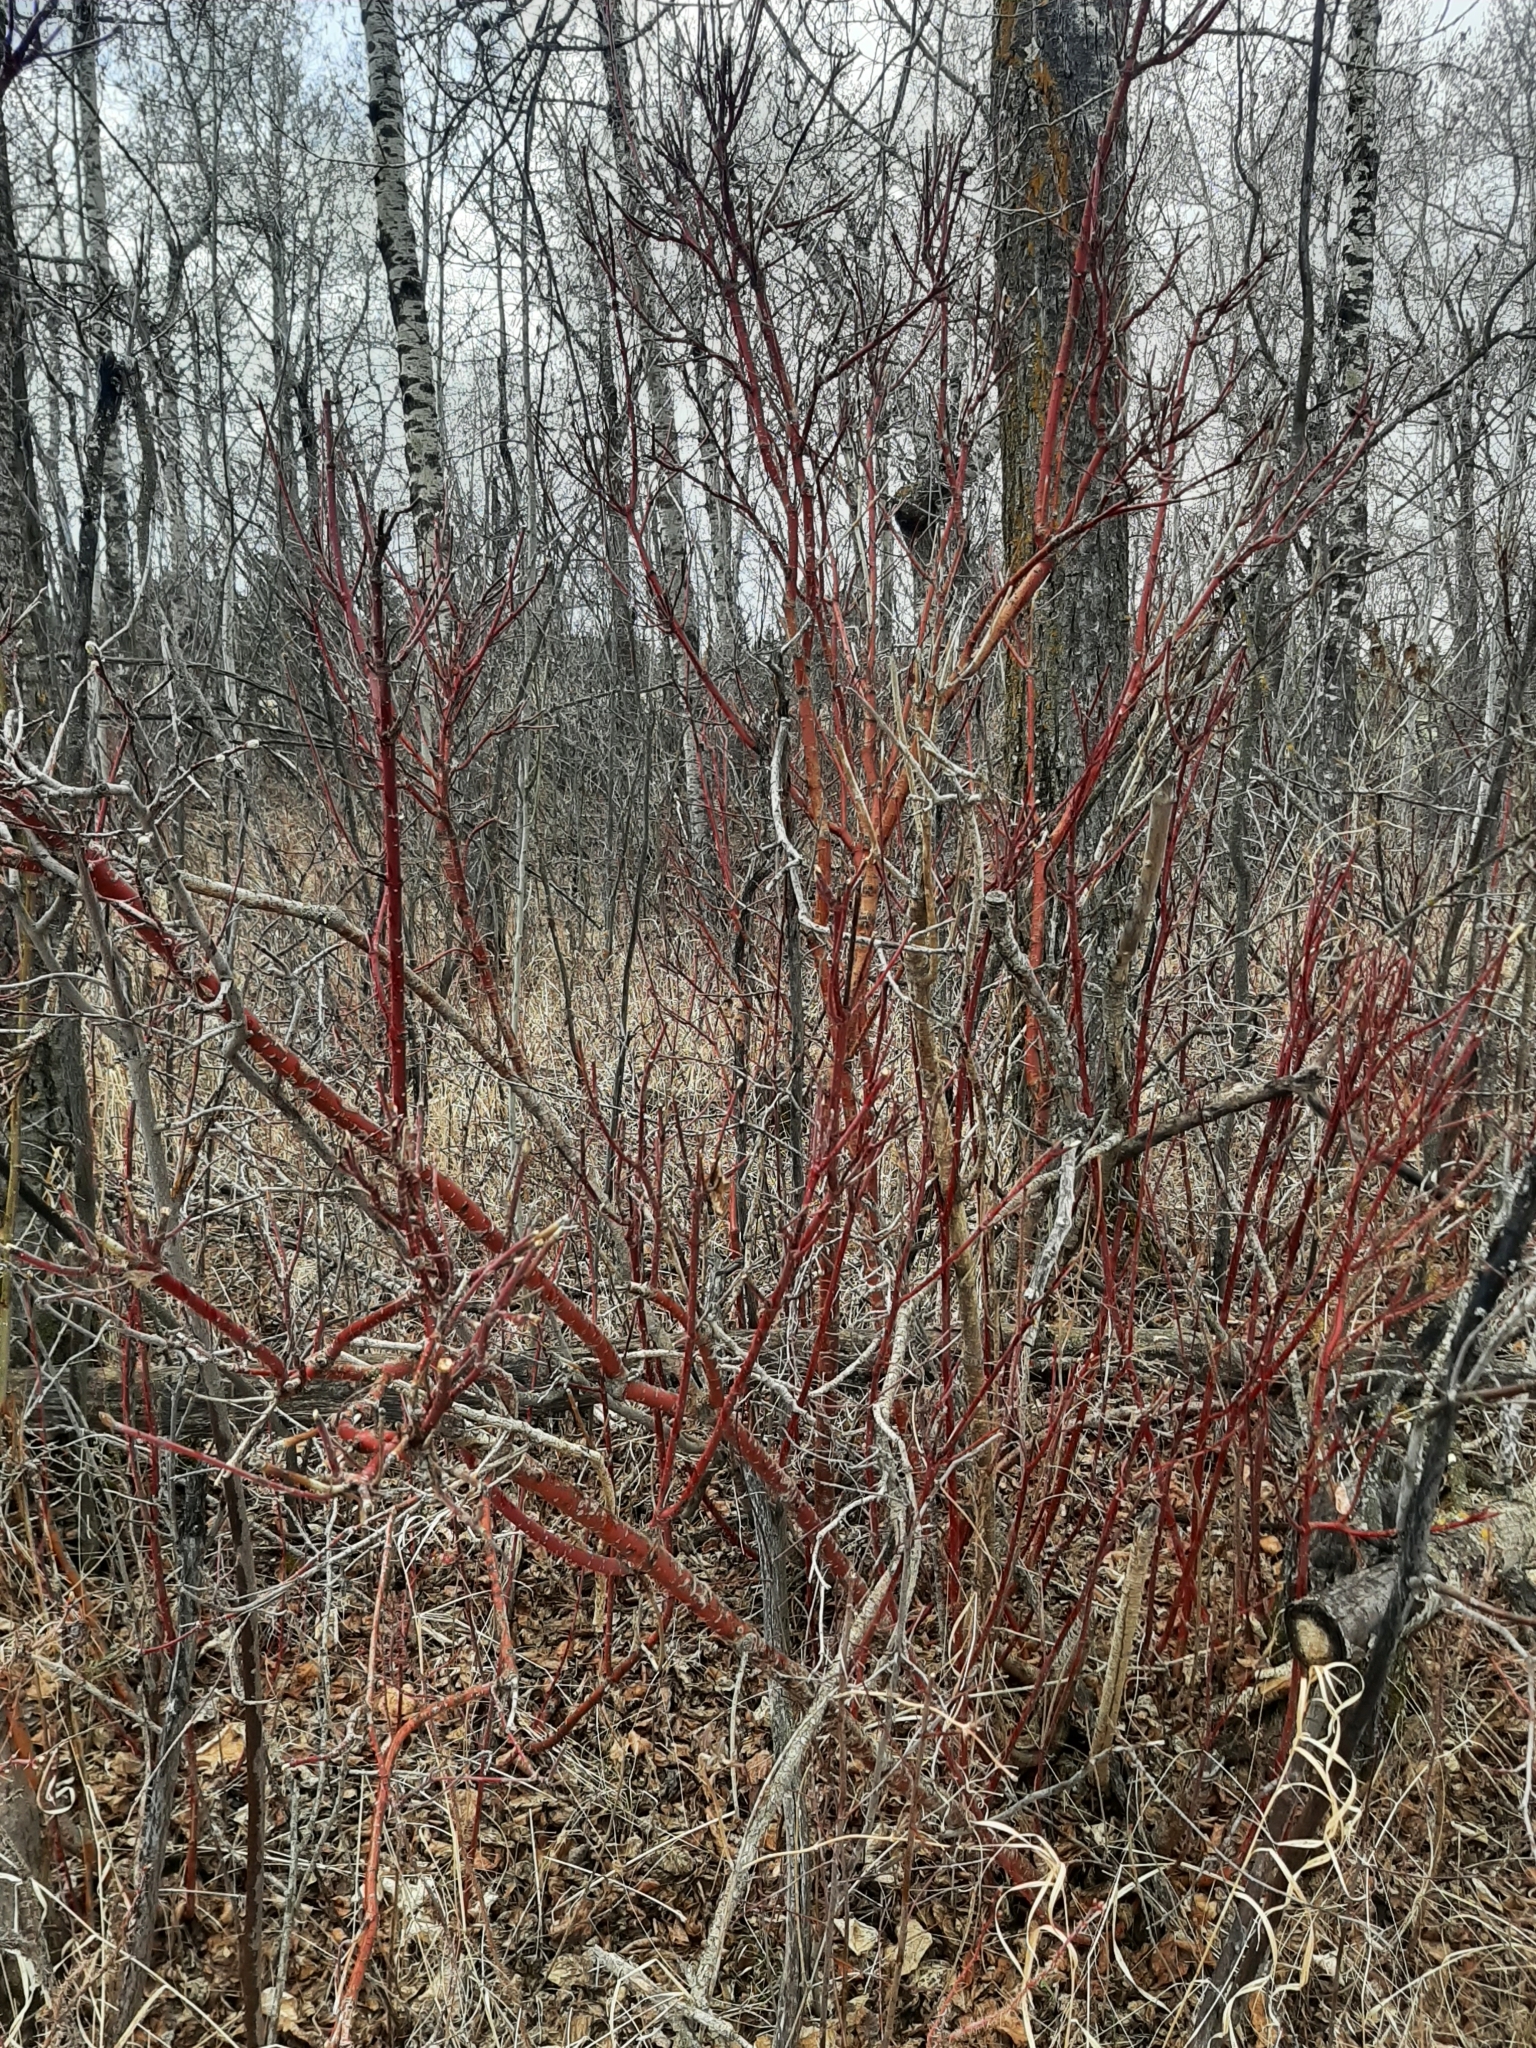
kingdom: Plantae
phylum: Tracheophyta
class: Magnoliopsida
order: Cornales
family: Cornaceae
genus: Cornus
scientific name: Cornus sericea
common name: Red-osier dogwood
